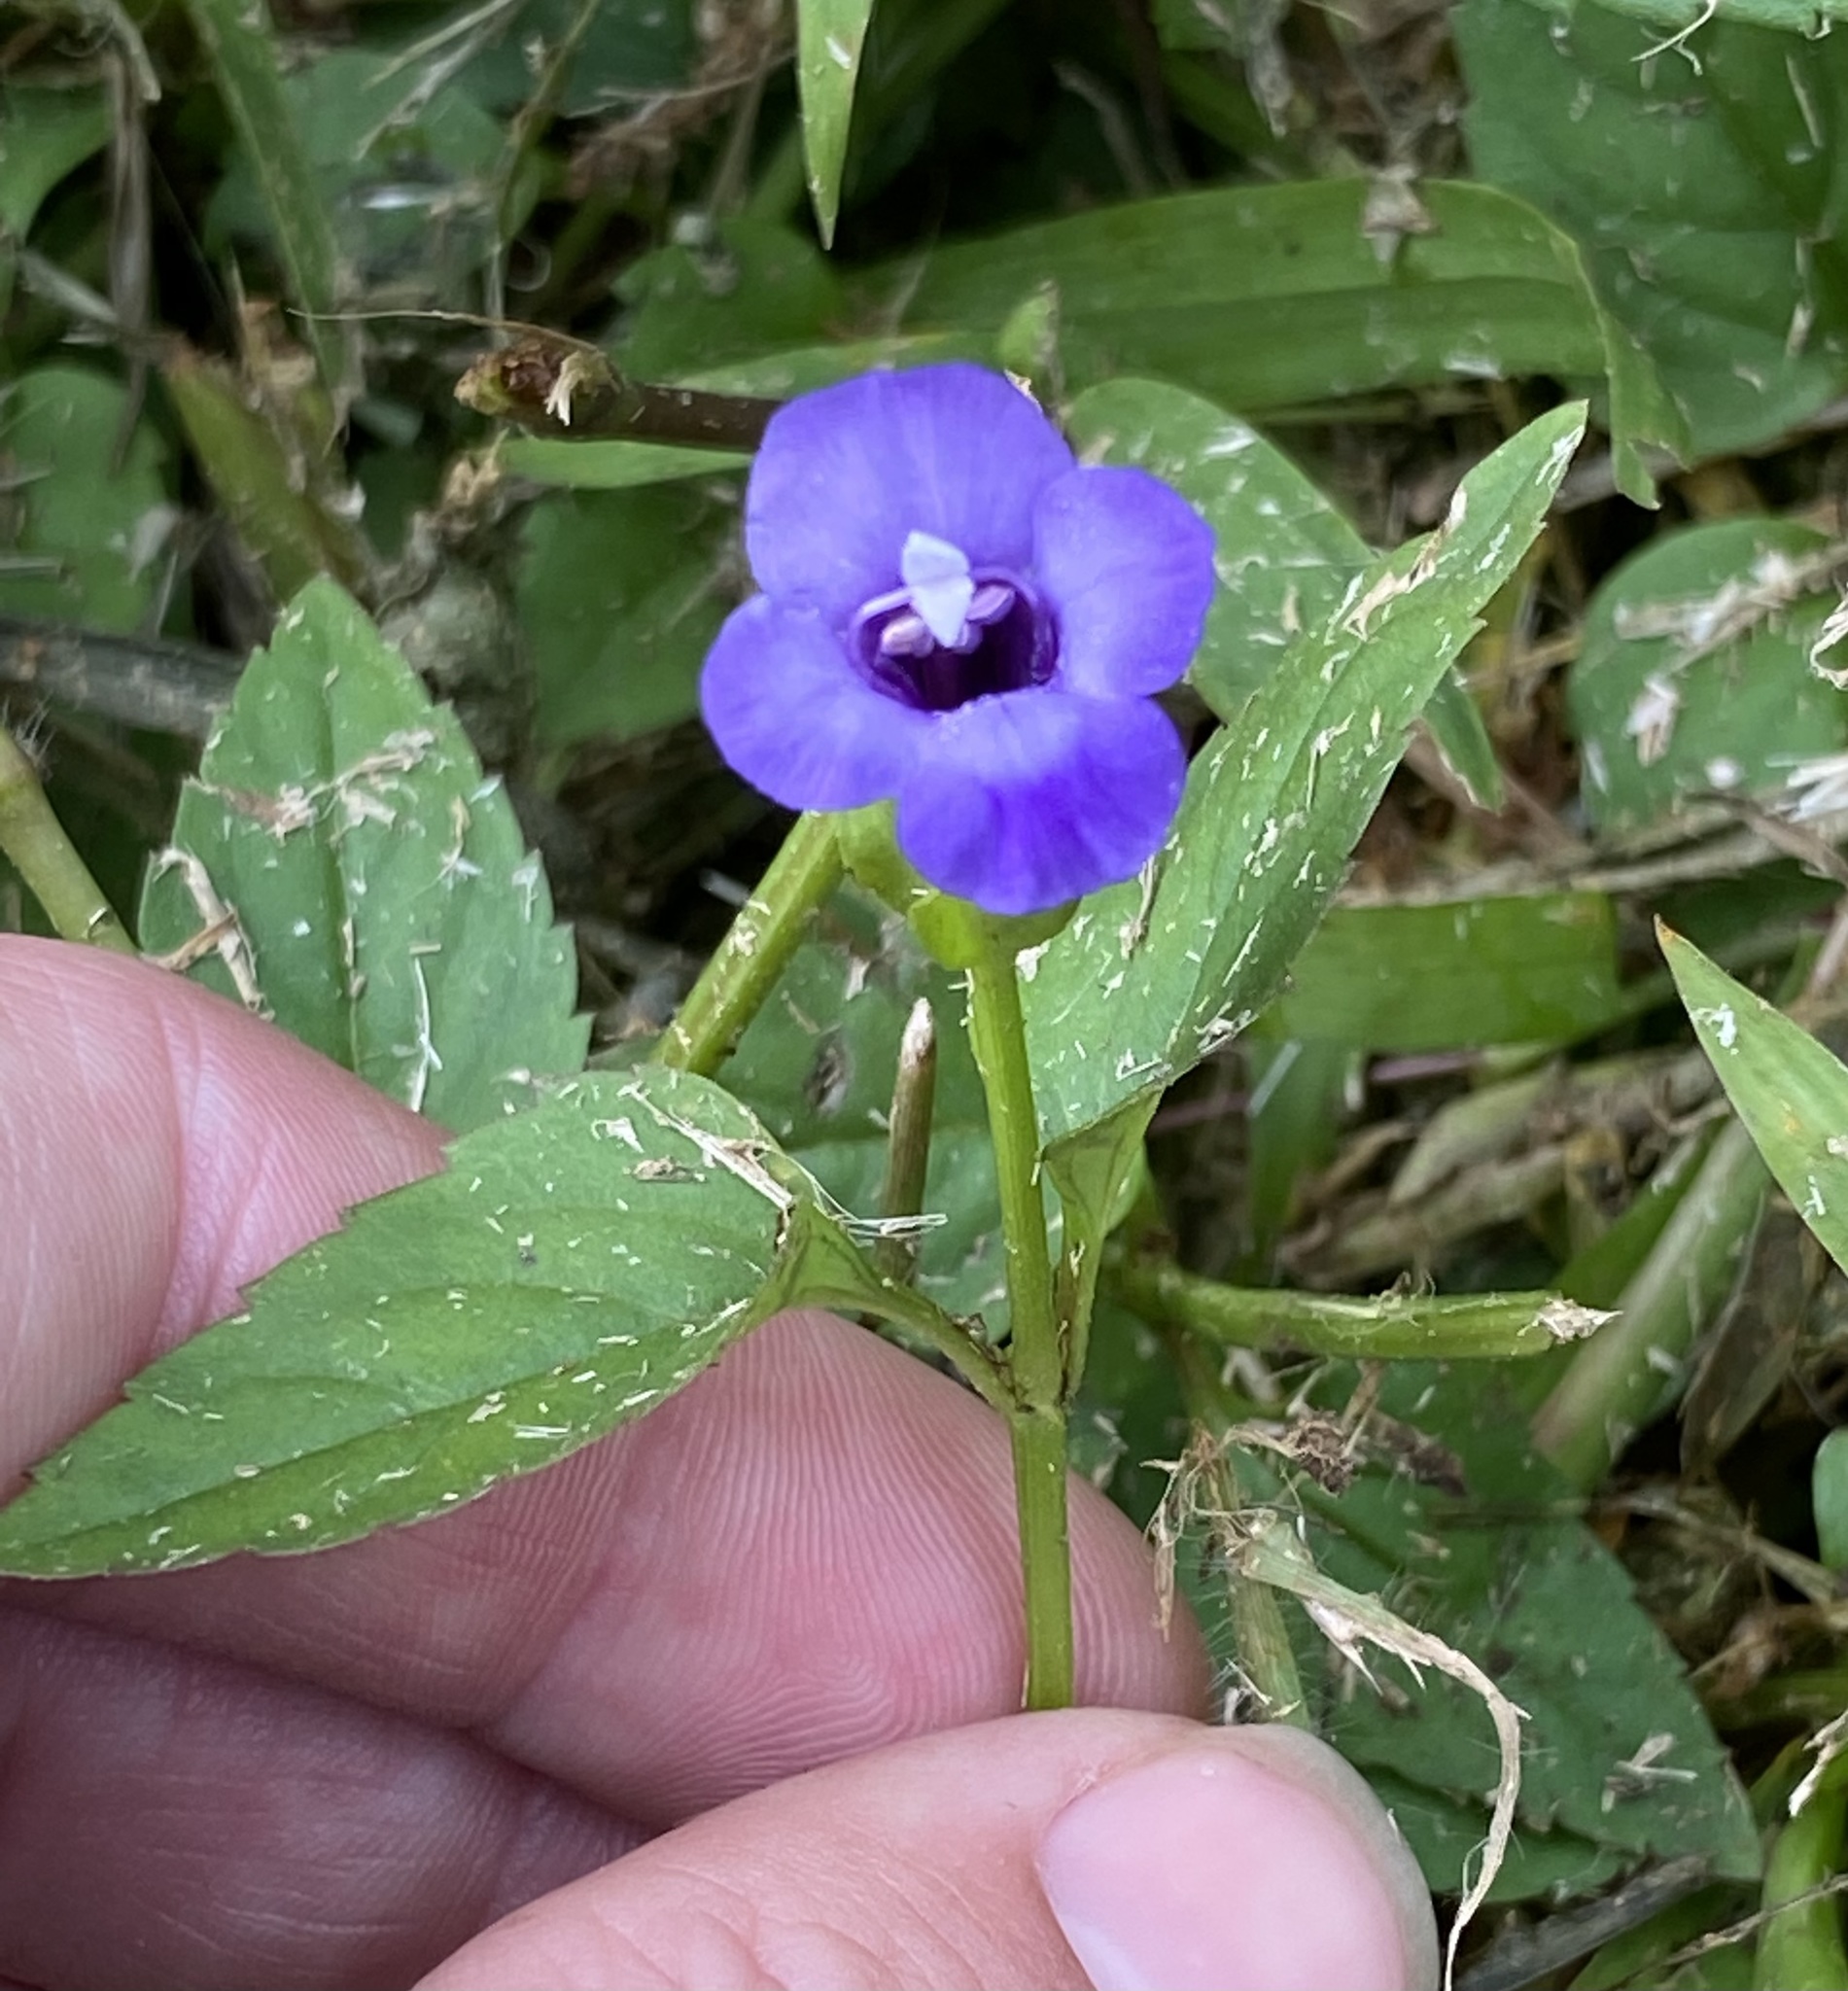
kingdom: Plantae
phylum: Tracheophyta
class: Magnoliopsida
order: Lamiales
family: Linderniaceae
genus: Torenia
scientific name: Torenia asiatica
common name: Wishbone flower
